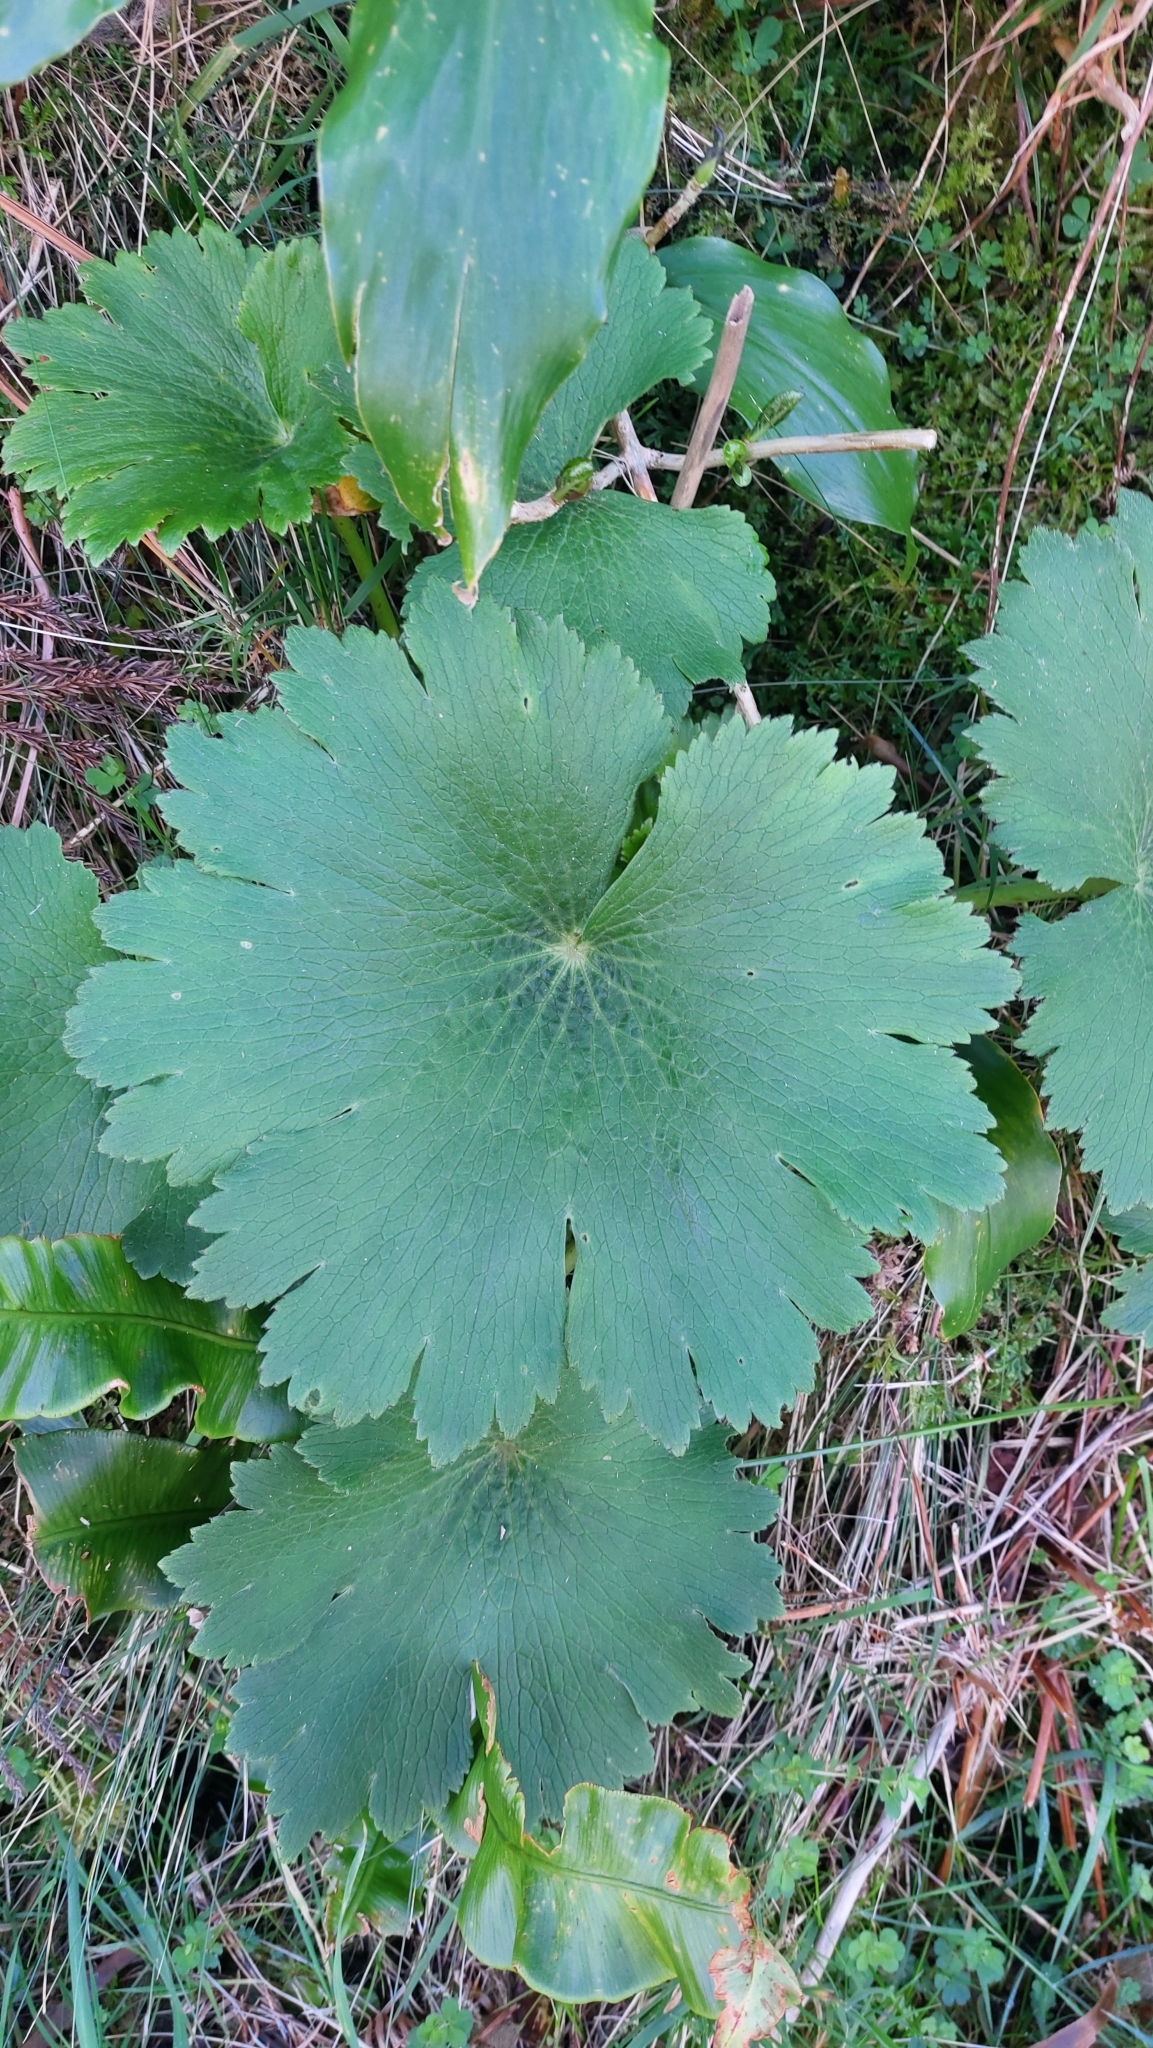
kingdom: Plantae
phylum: Tracheophyta
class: Magnoliopsida
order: Ranunculales
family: Ranunculaceae
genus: Ranunculus
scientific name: Ranunculus cortusifolius
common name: Azores buttercup
